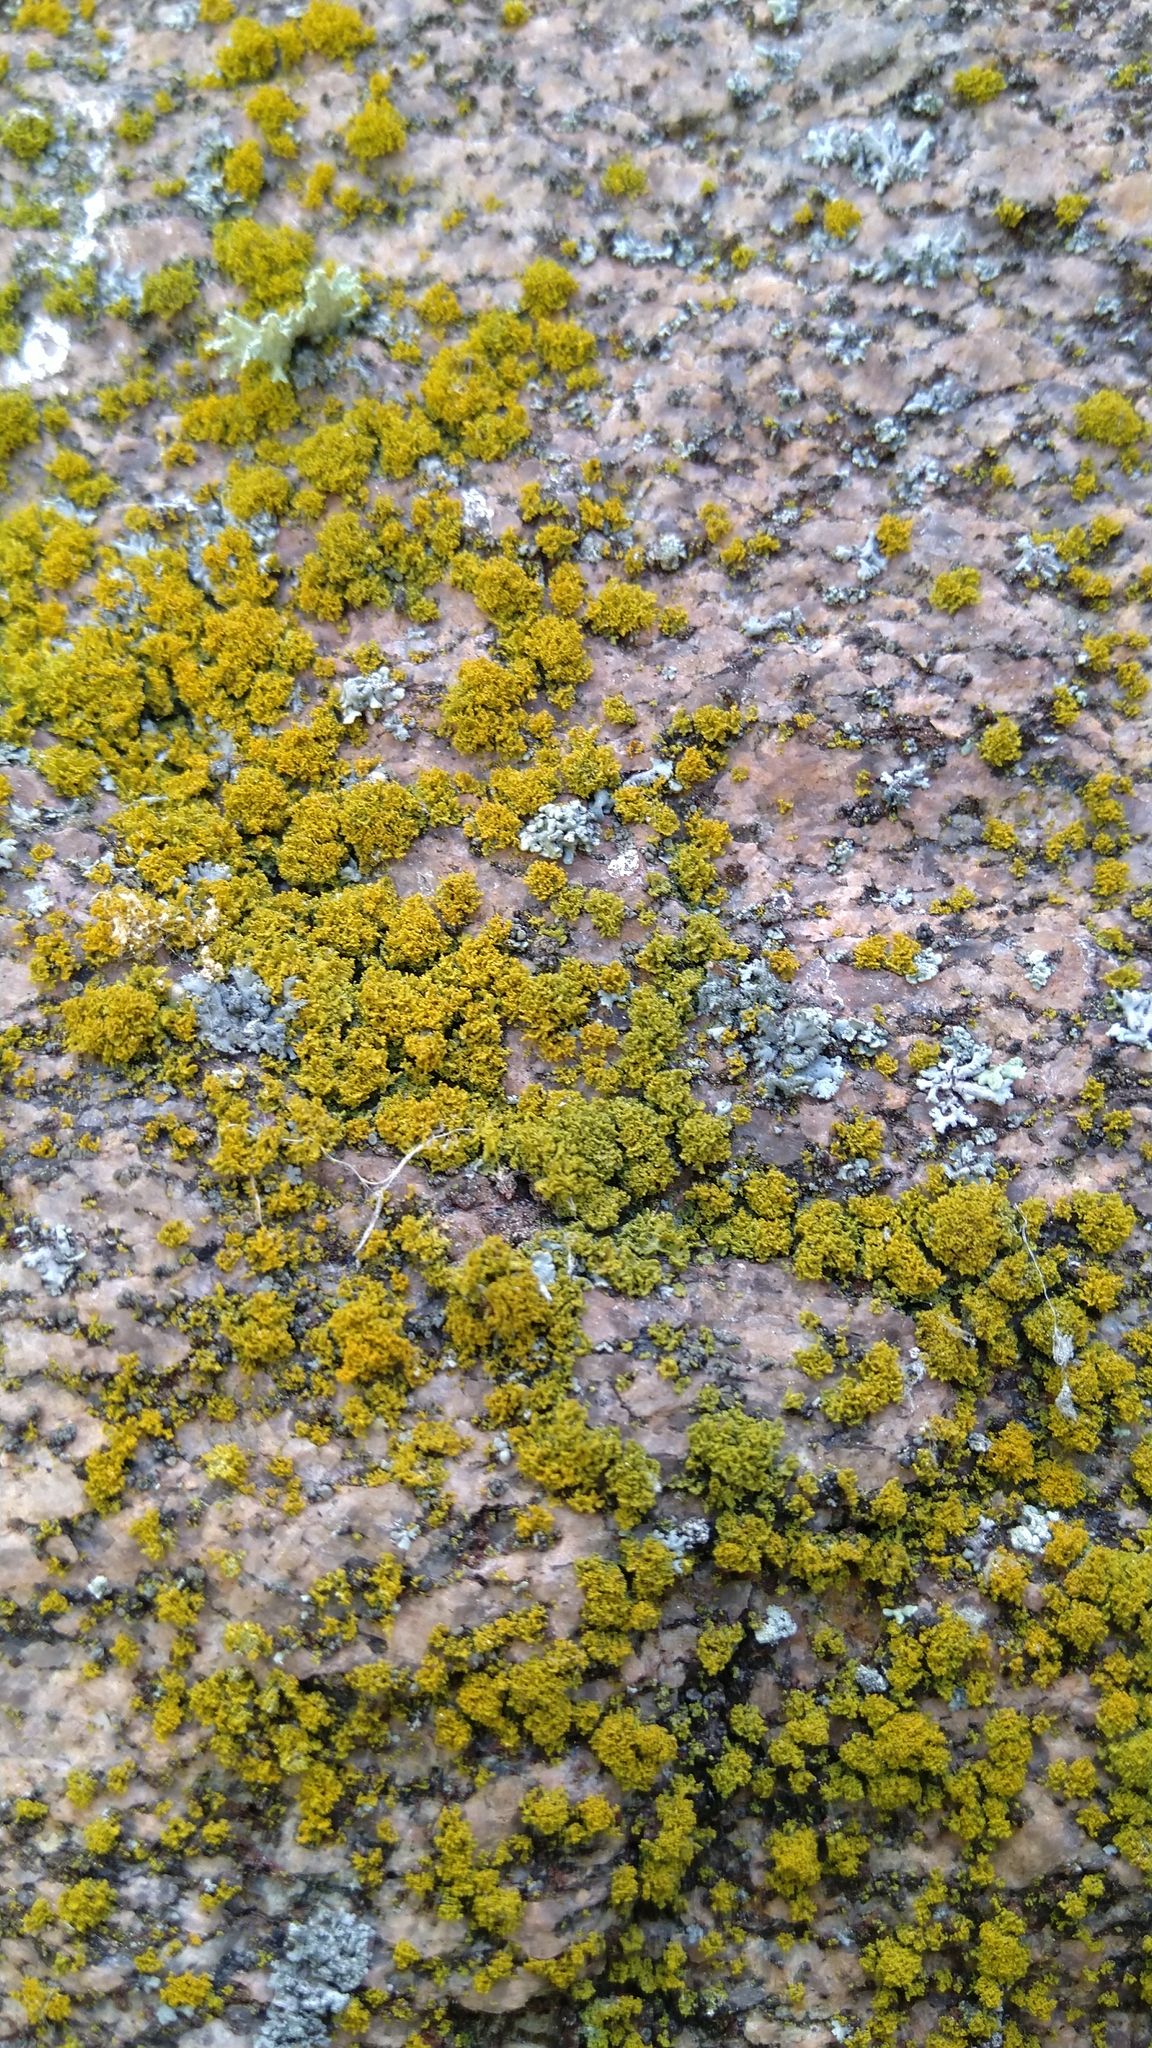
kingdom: Fungi
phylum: Ascomycota
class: Lecanoromycetes
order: Teloschistales
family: Teloschistaceae
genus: Polycauliona
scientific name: Polycauliona candelaria
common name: Shrubby sunburst lichen
